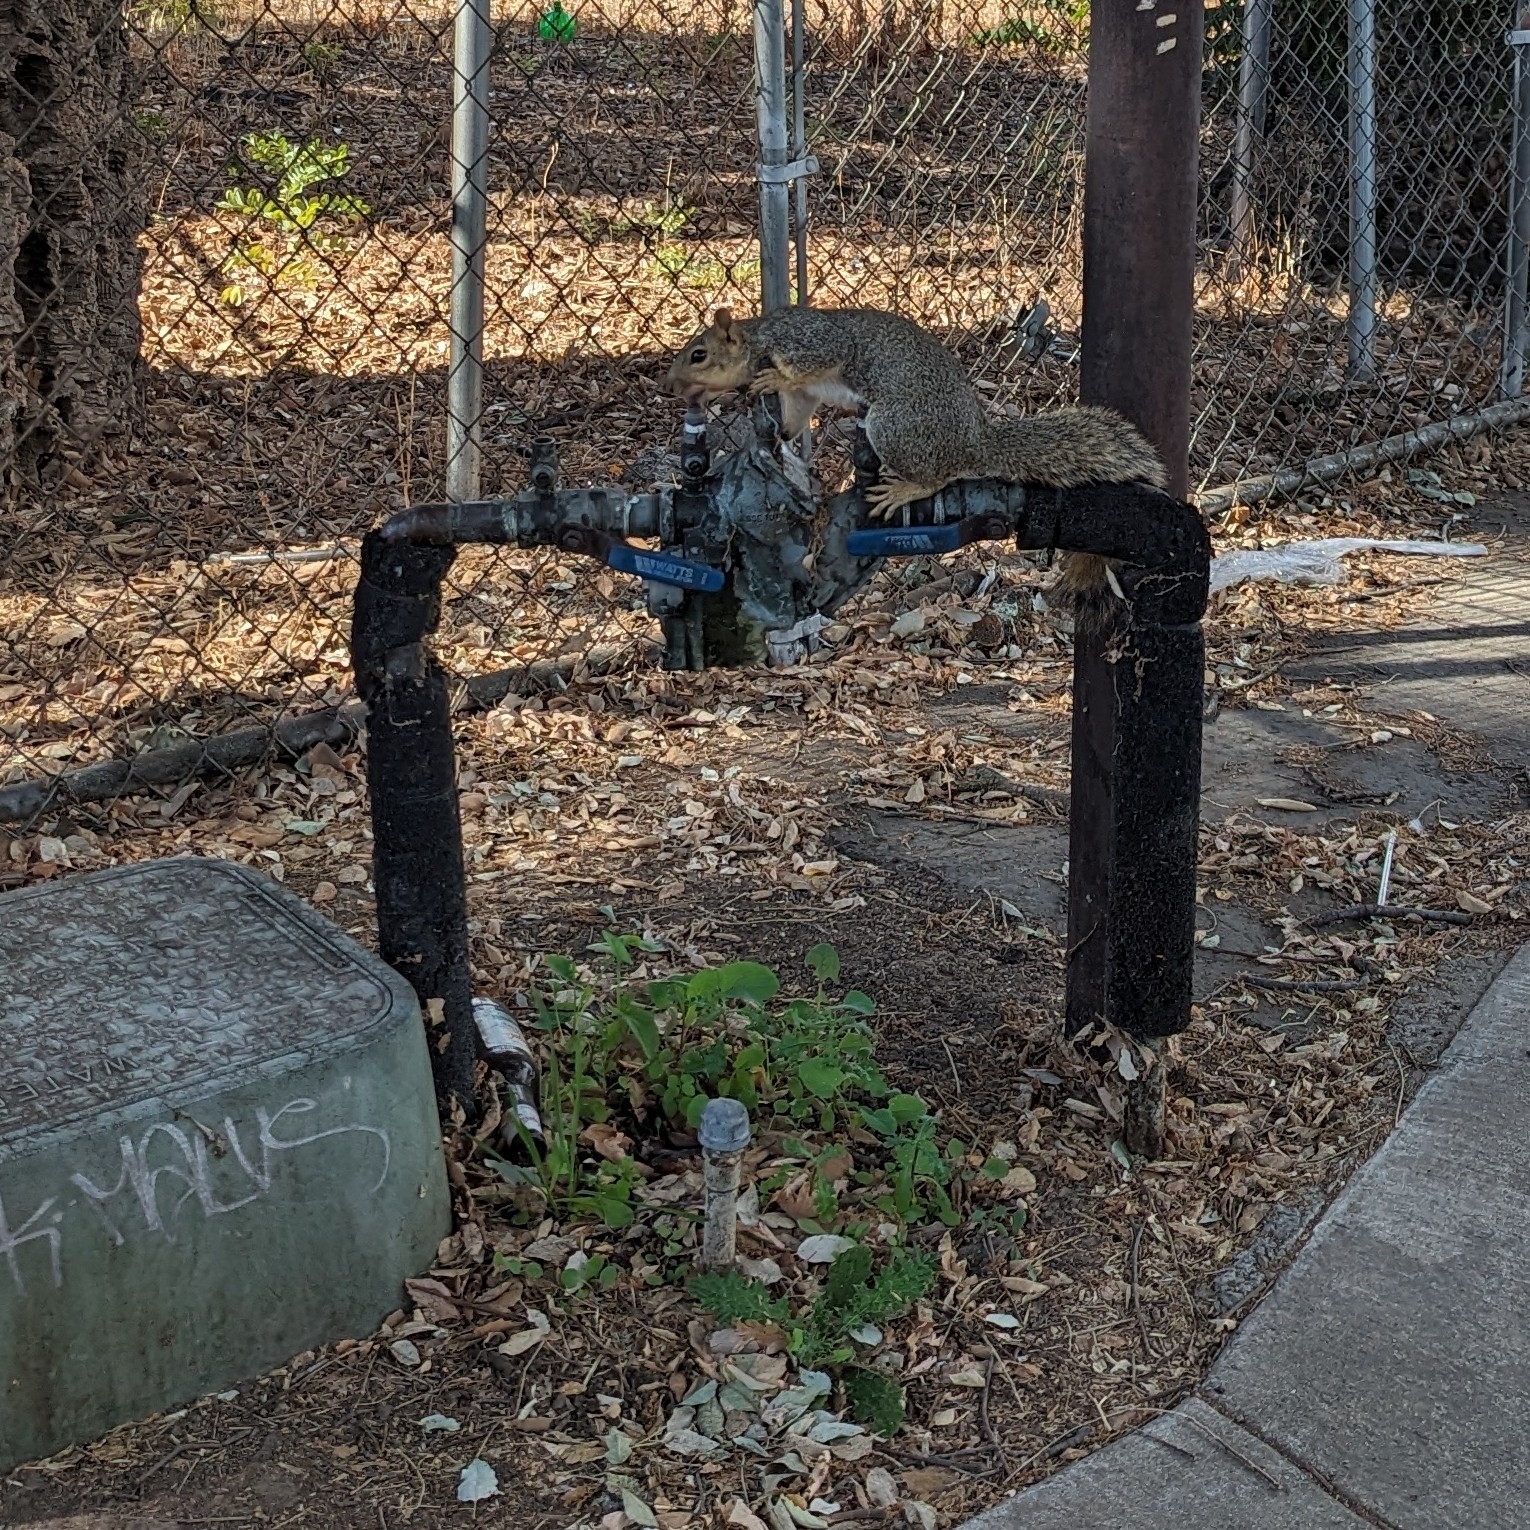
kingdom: Animalia
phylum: Chordata
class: Mammalia
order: Rodentia
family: Sciuridae
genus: Sciurus
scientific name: Sciurus niger
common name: Fox squirrel
